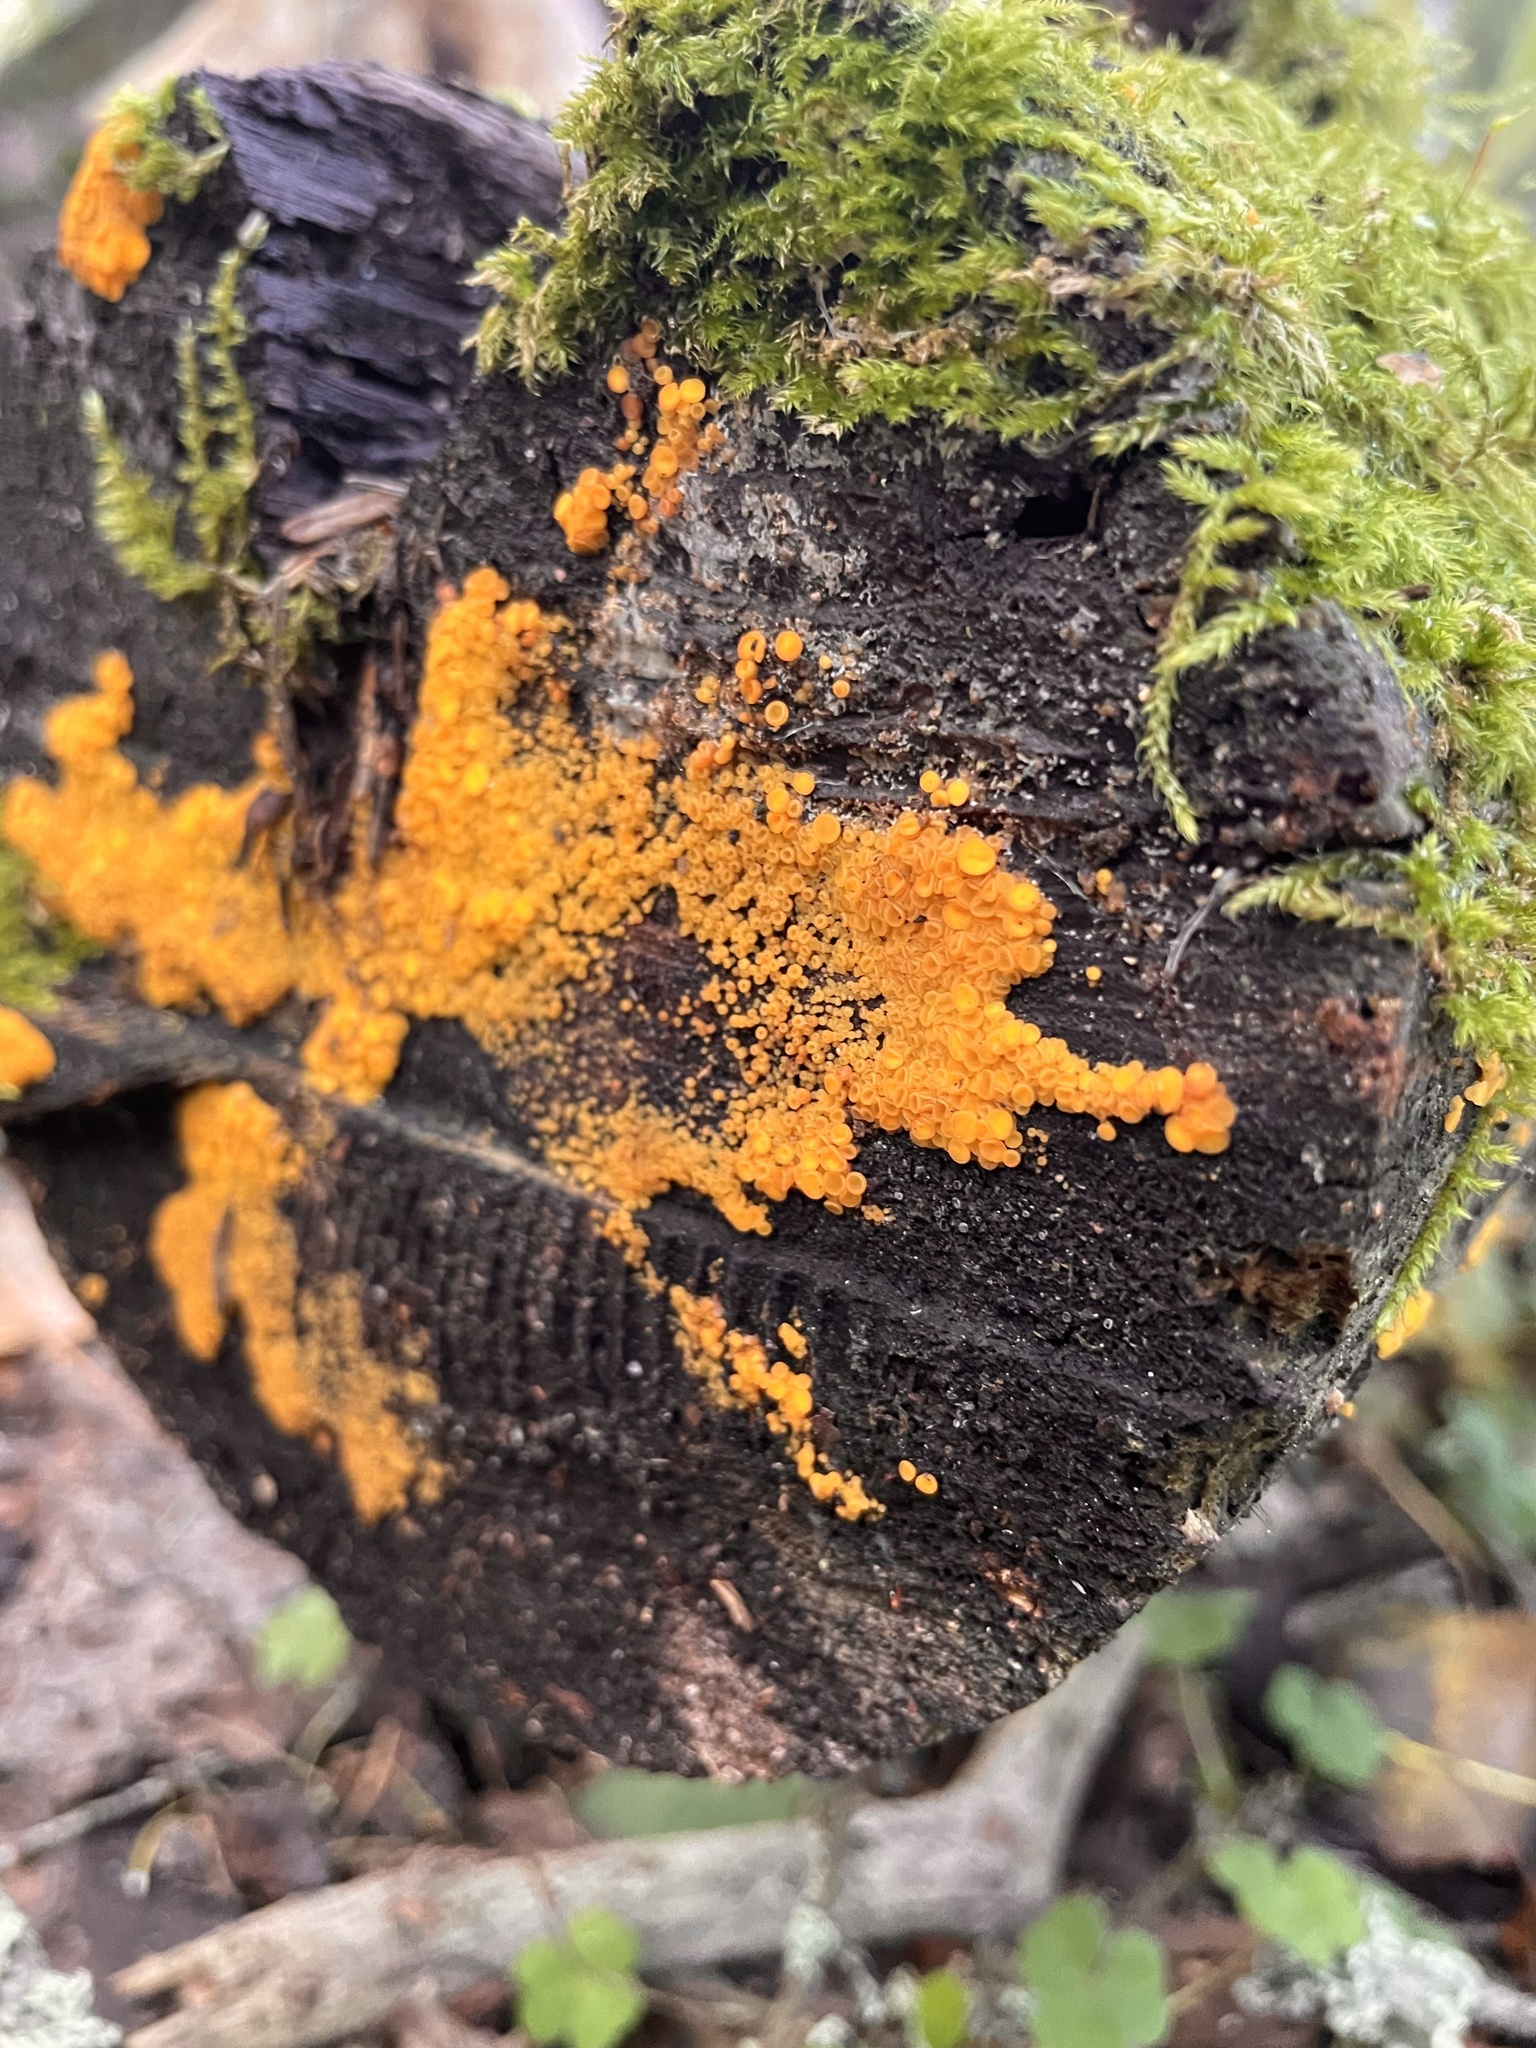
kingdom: Fungi
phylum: Ascomycota
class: Leotiomycetes
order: Helotiales
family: Pezizellaceae
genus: Calycina
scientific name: Calycina citrina
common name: Yellow fairy cups
